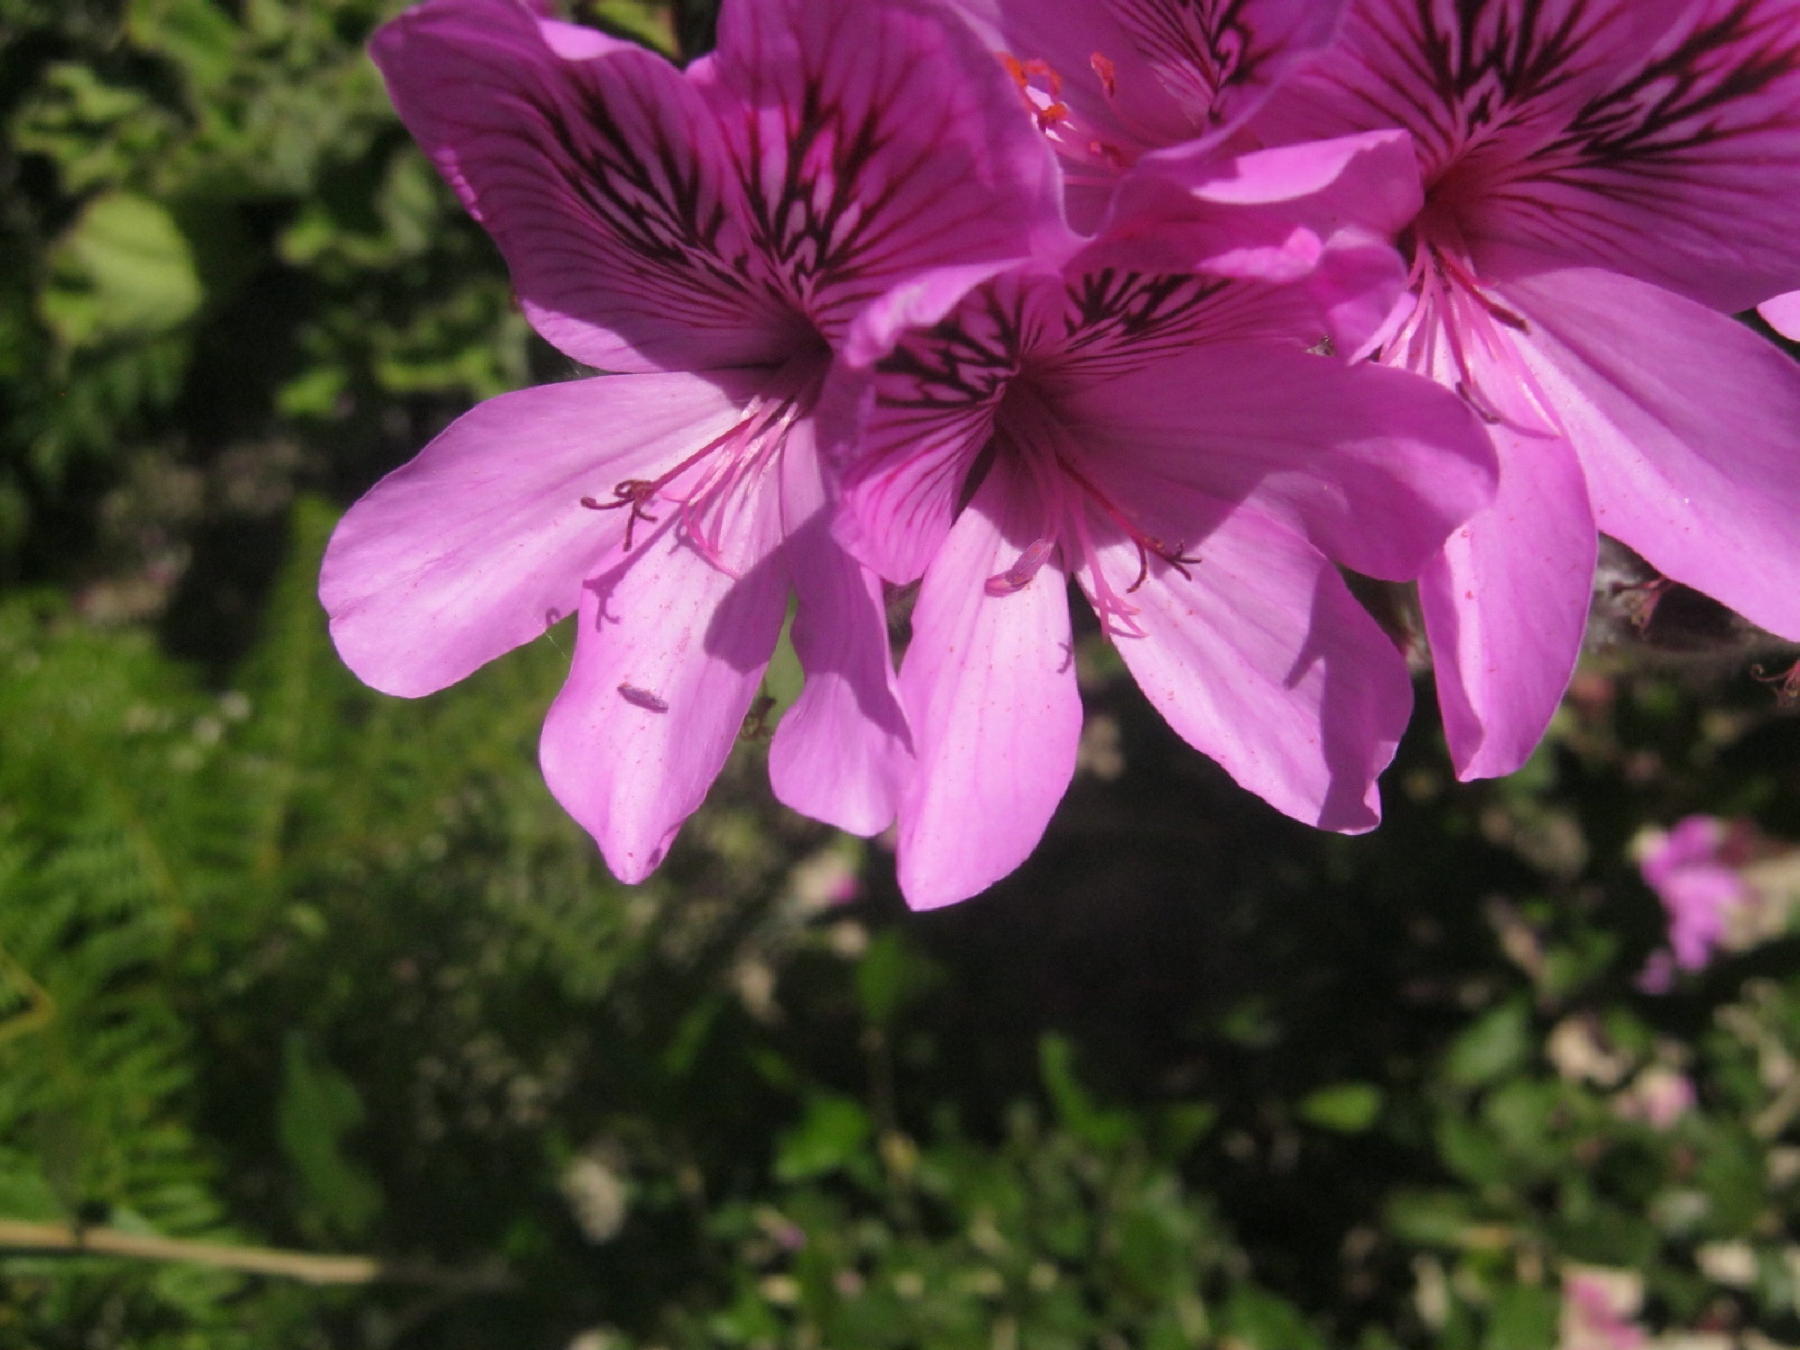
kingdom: Plantae
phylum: Tracheophyta
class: Magnoliopsida
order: Geraniales
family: Geraniaceae
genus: Pelargonium
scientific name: Pelargonium betulinum
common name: Birch-leaf pelargonium
